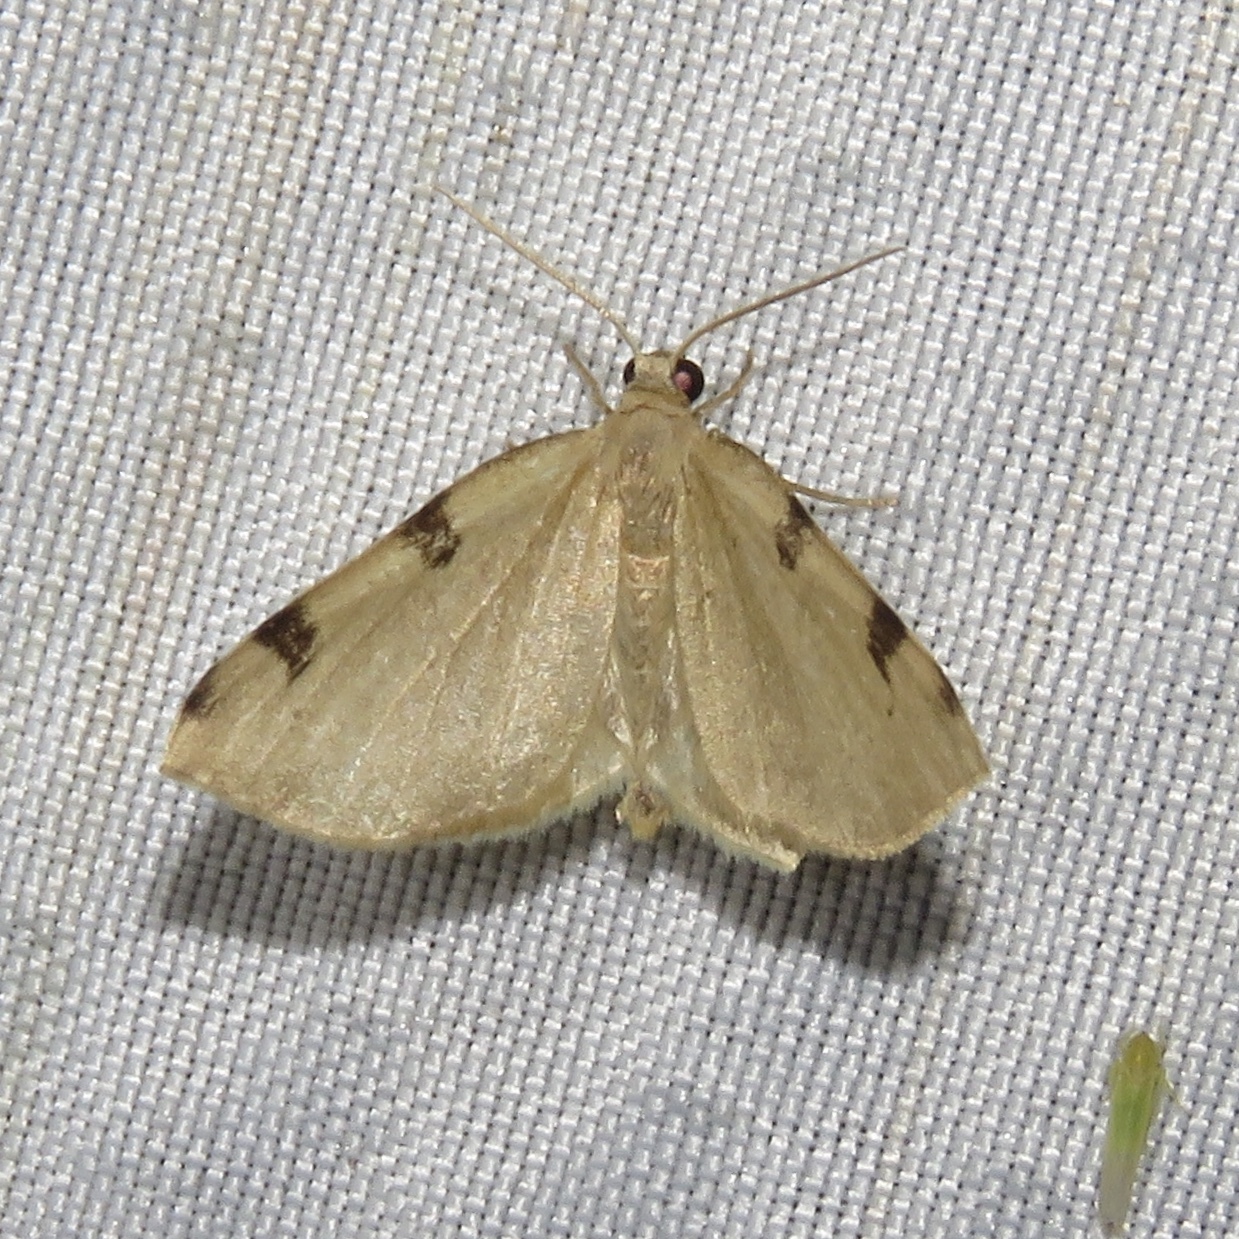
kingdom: Animalia
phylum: Arthropoda
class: Insecta
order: Lepidoptera
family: Geometridae
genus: Heterophleps
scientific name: Heterophleps triguttaria
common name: Three-spotted fillip
